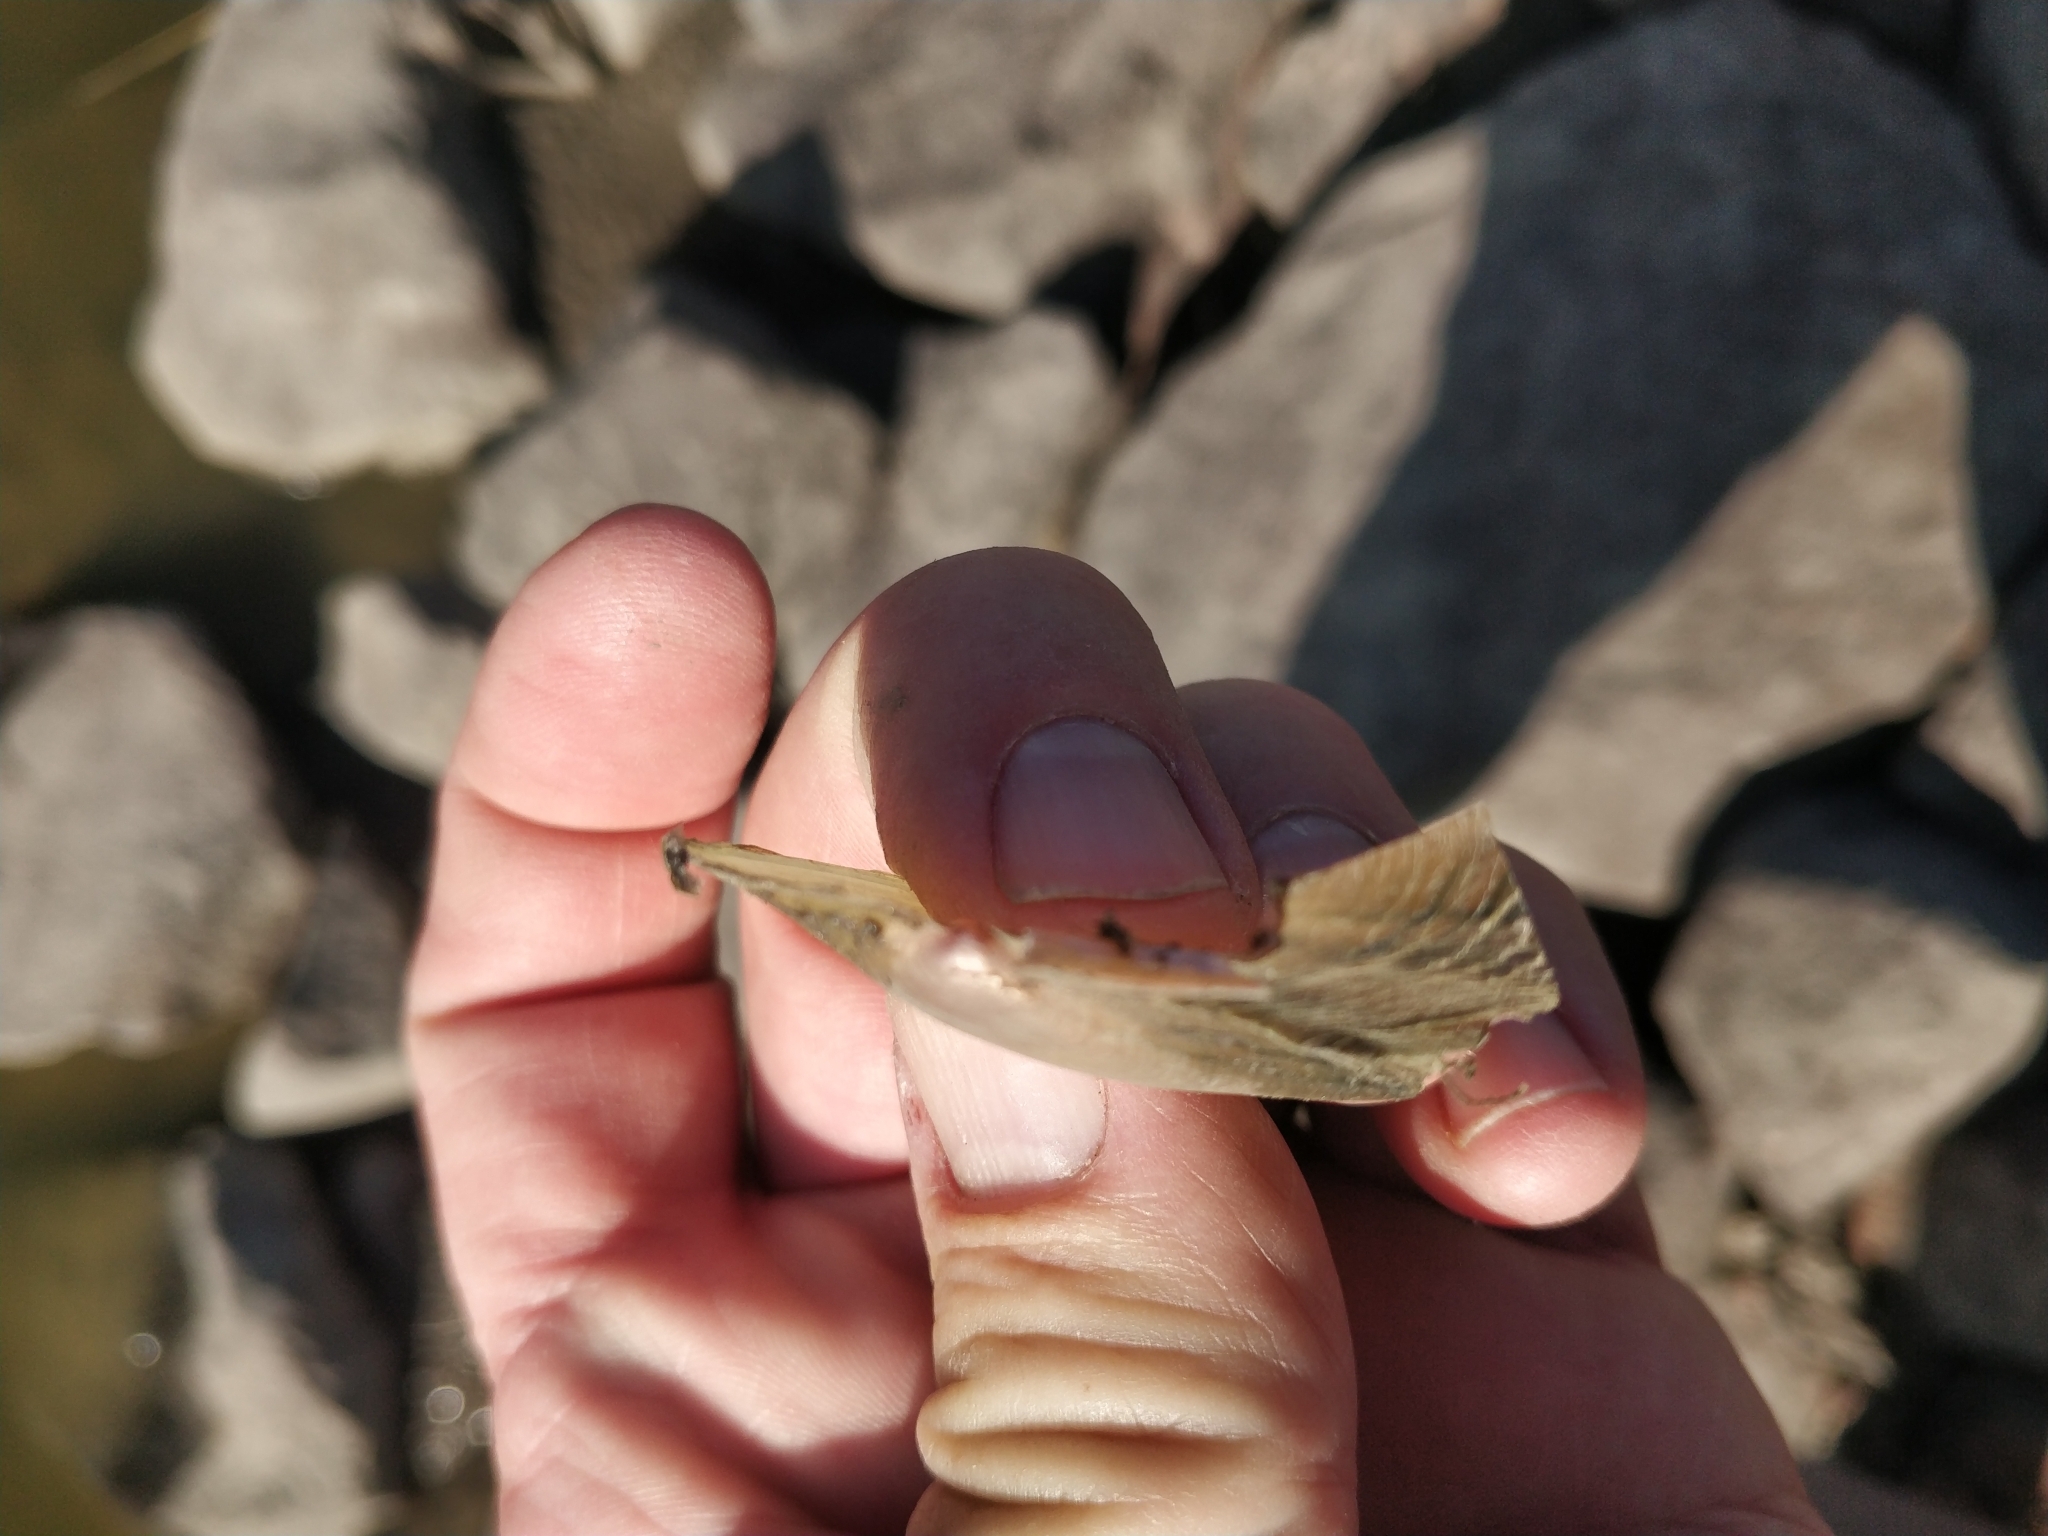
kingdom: Animalia
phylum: Mollusca
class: Bivalvia
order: Unionida
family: Unionidae
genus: Potamilus
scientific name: Potamilus fragilis
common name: Fragile papershell
